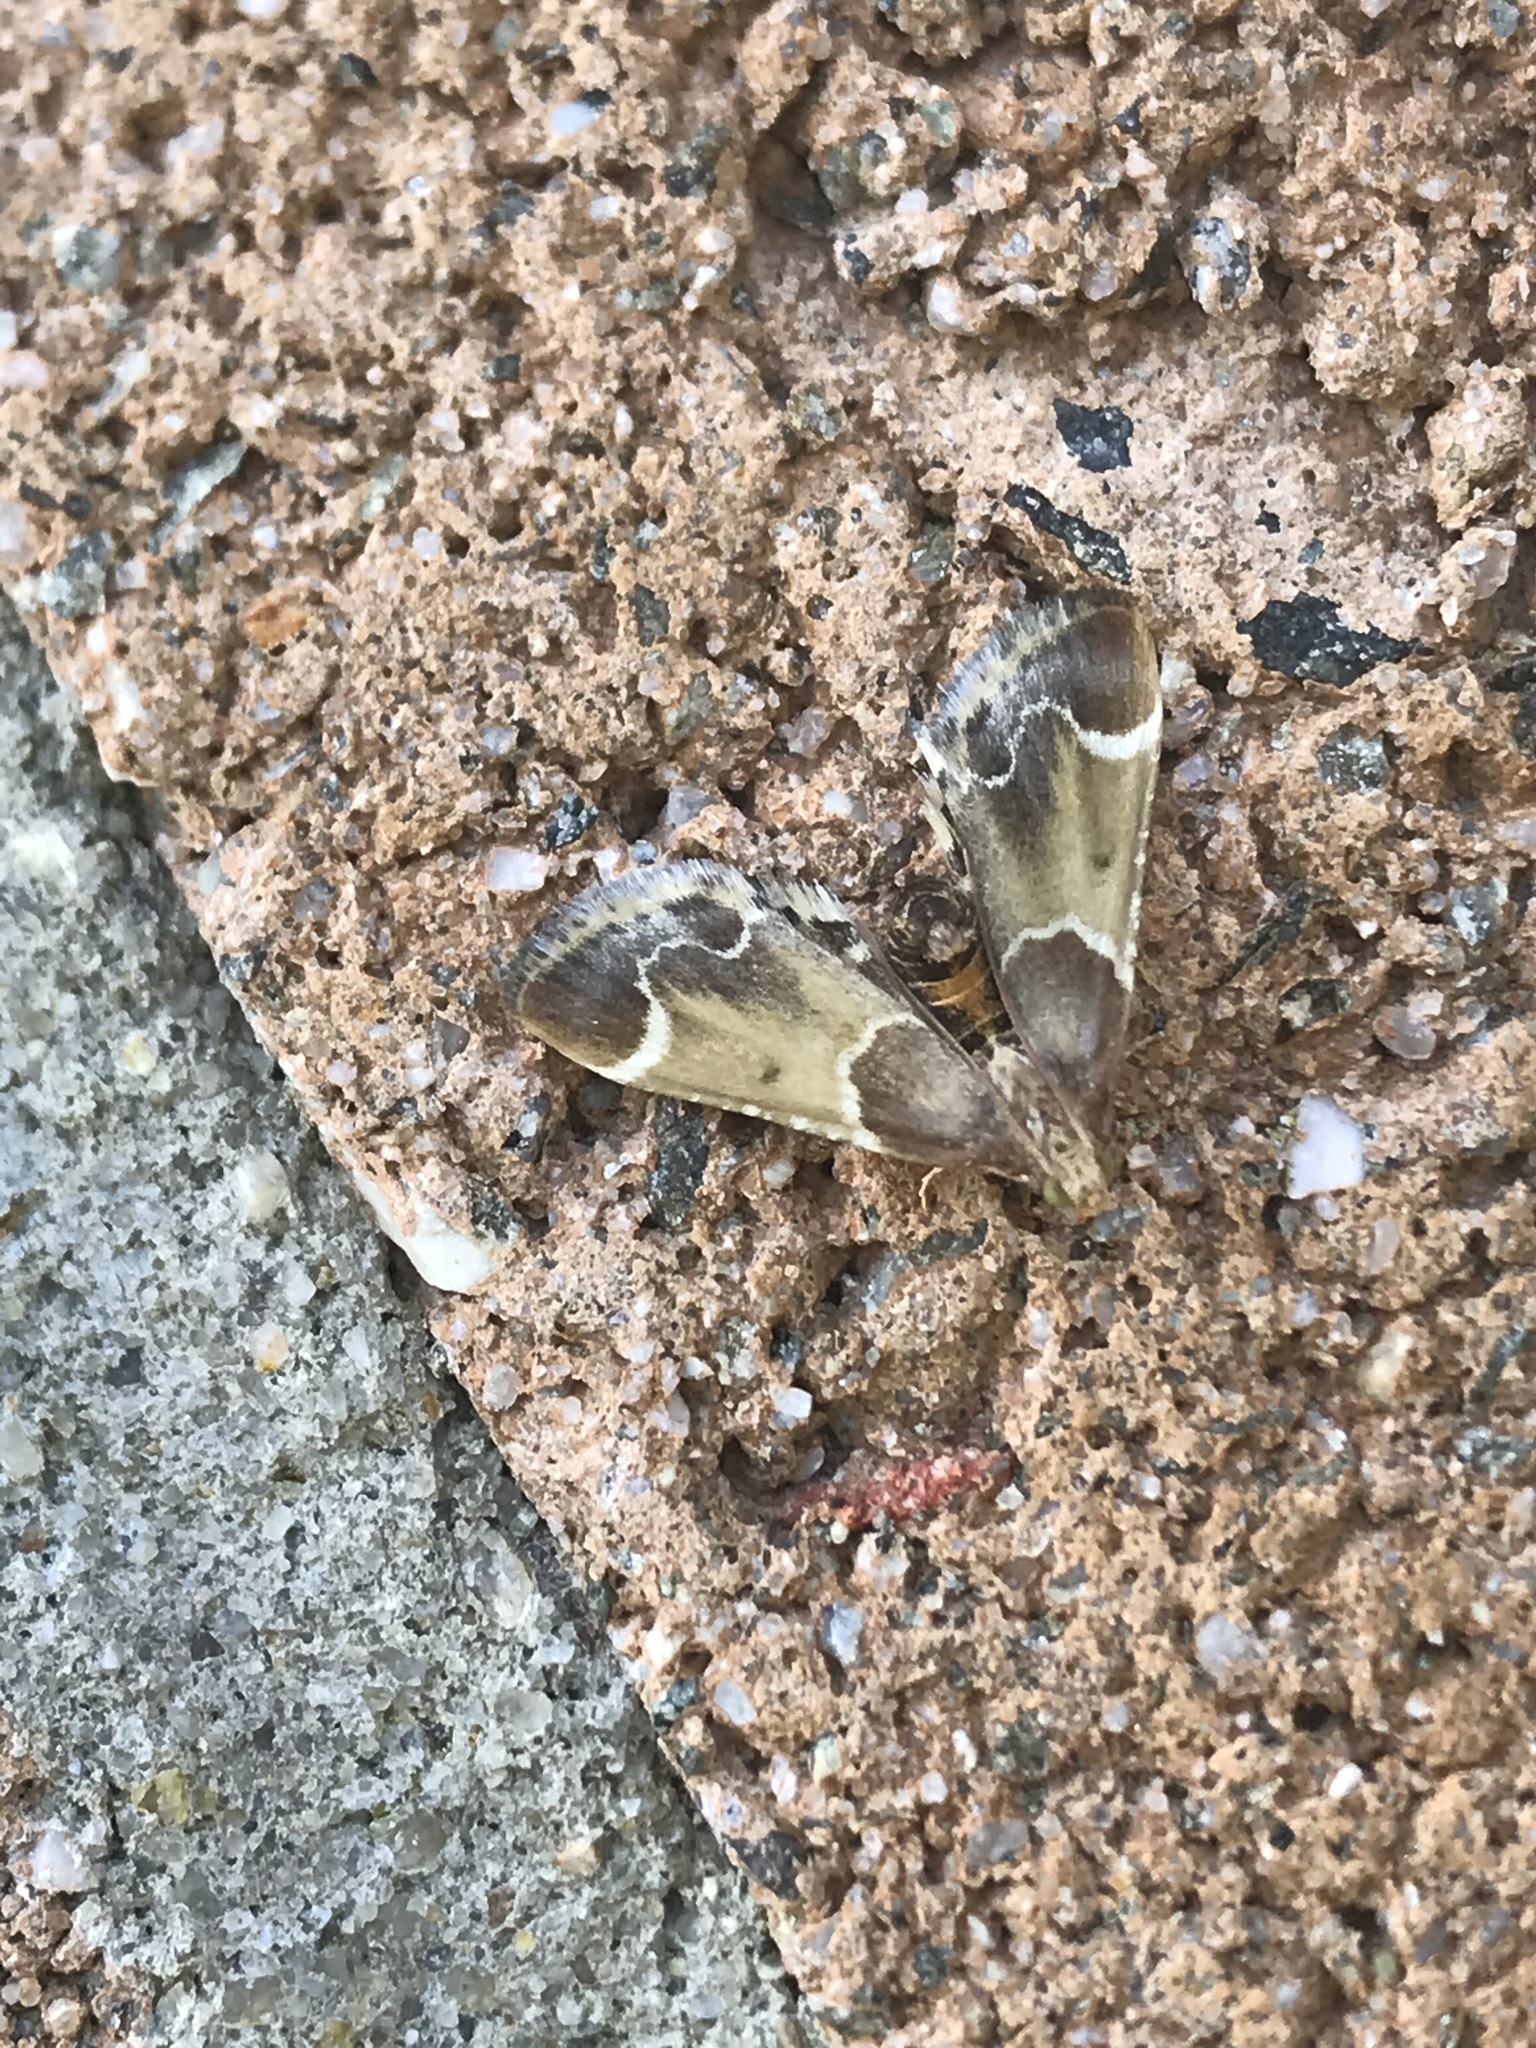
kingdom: Animalia
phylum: Arthropoda
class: Insecta
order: Lepidoptera
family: Pyralidae
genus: Pyralis
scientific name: Pyralis farinalis
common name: Meal moth
